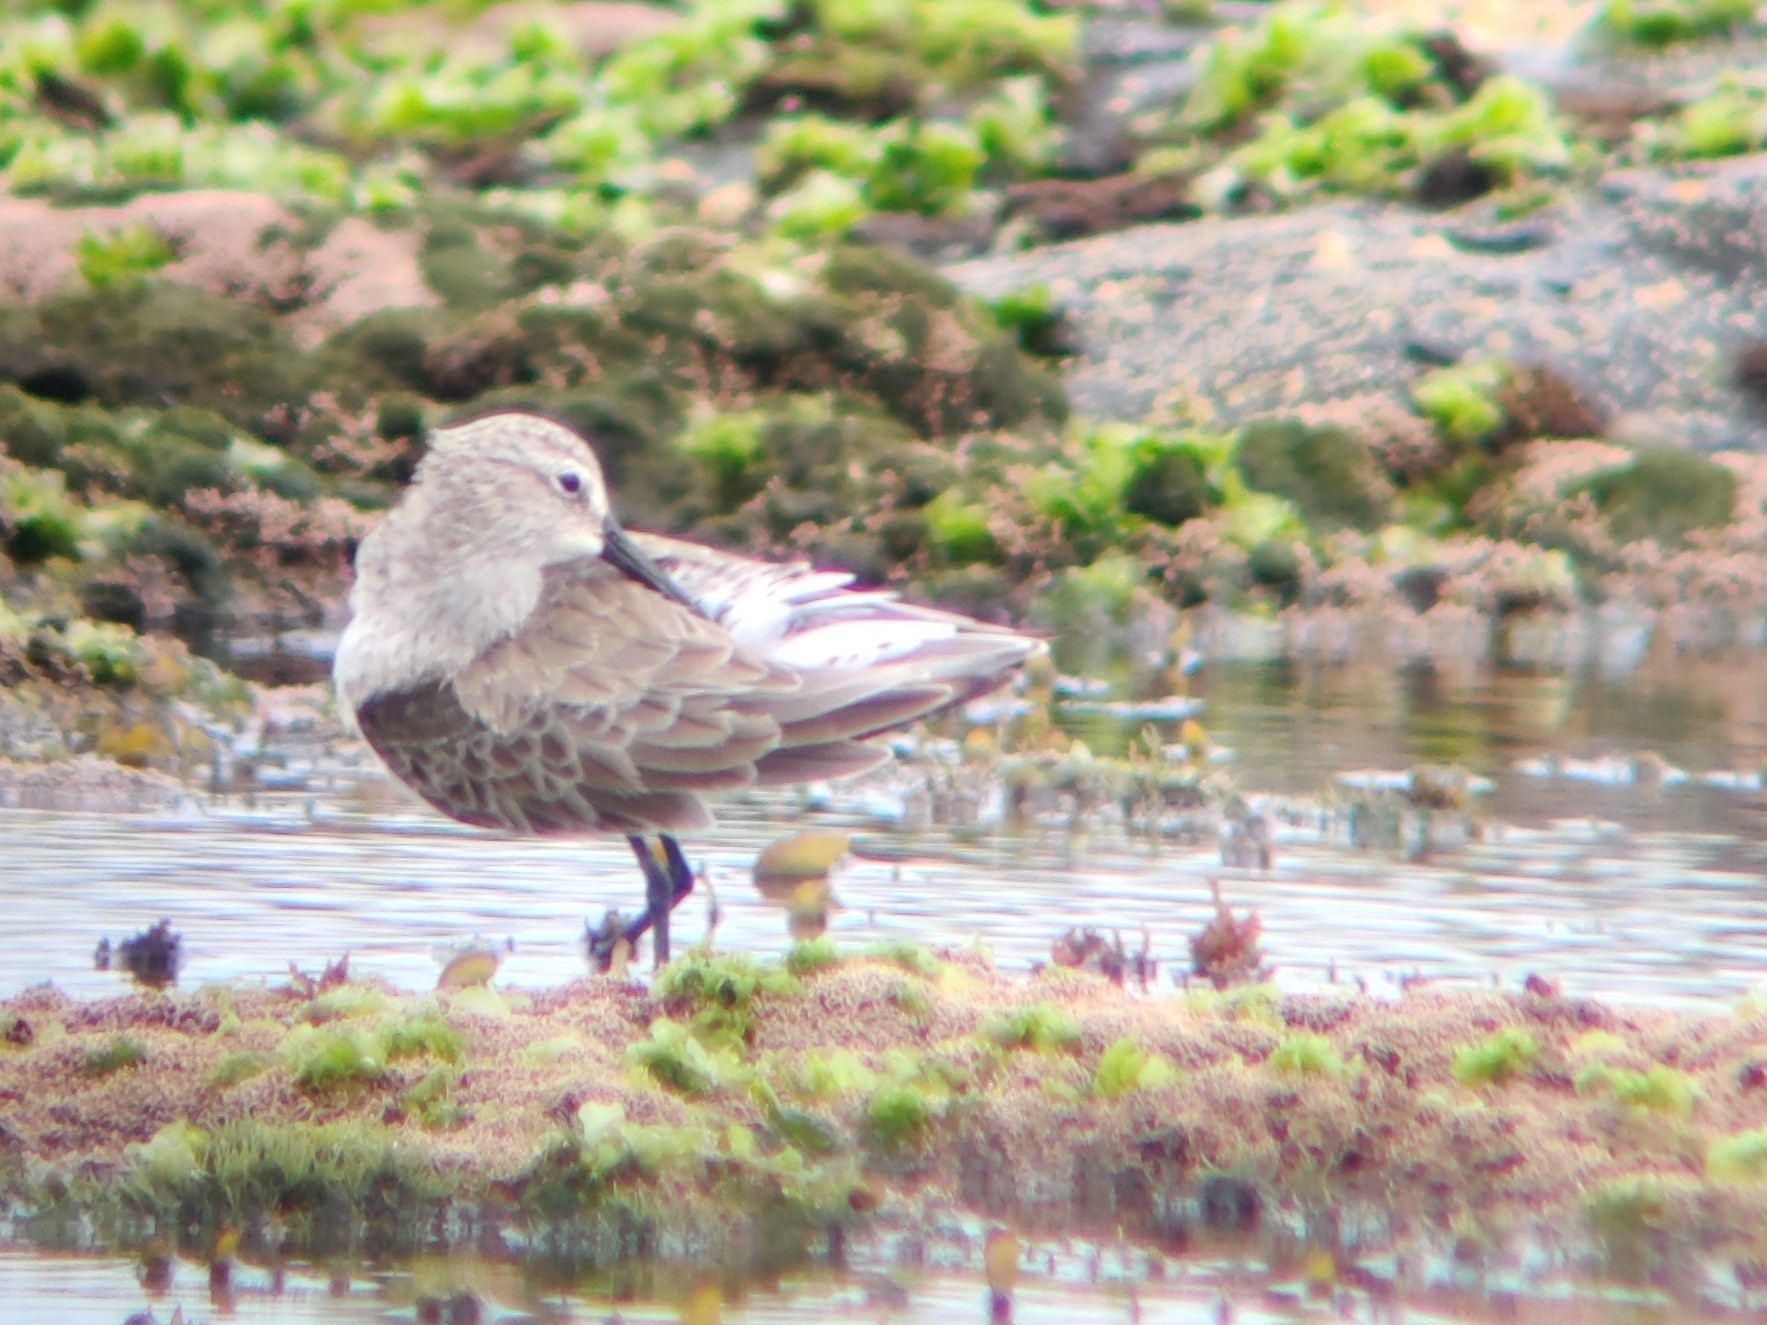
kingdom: Animalia
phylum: Chordata
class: Aves
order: Charadriiformes
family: Scolopacidae
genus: Calidris
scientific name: Calidris ferruginea
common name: Curlew sandpiper
